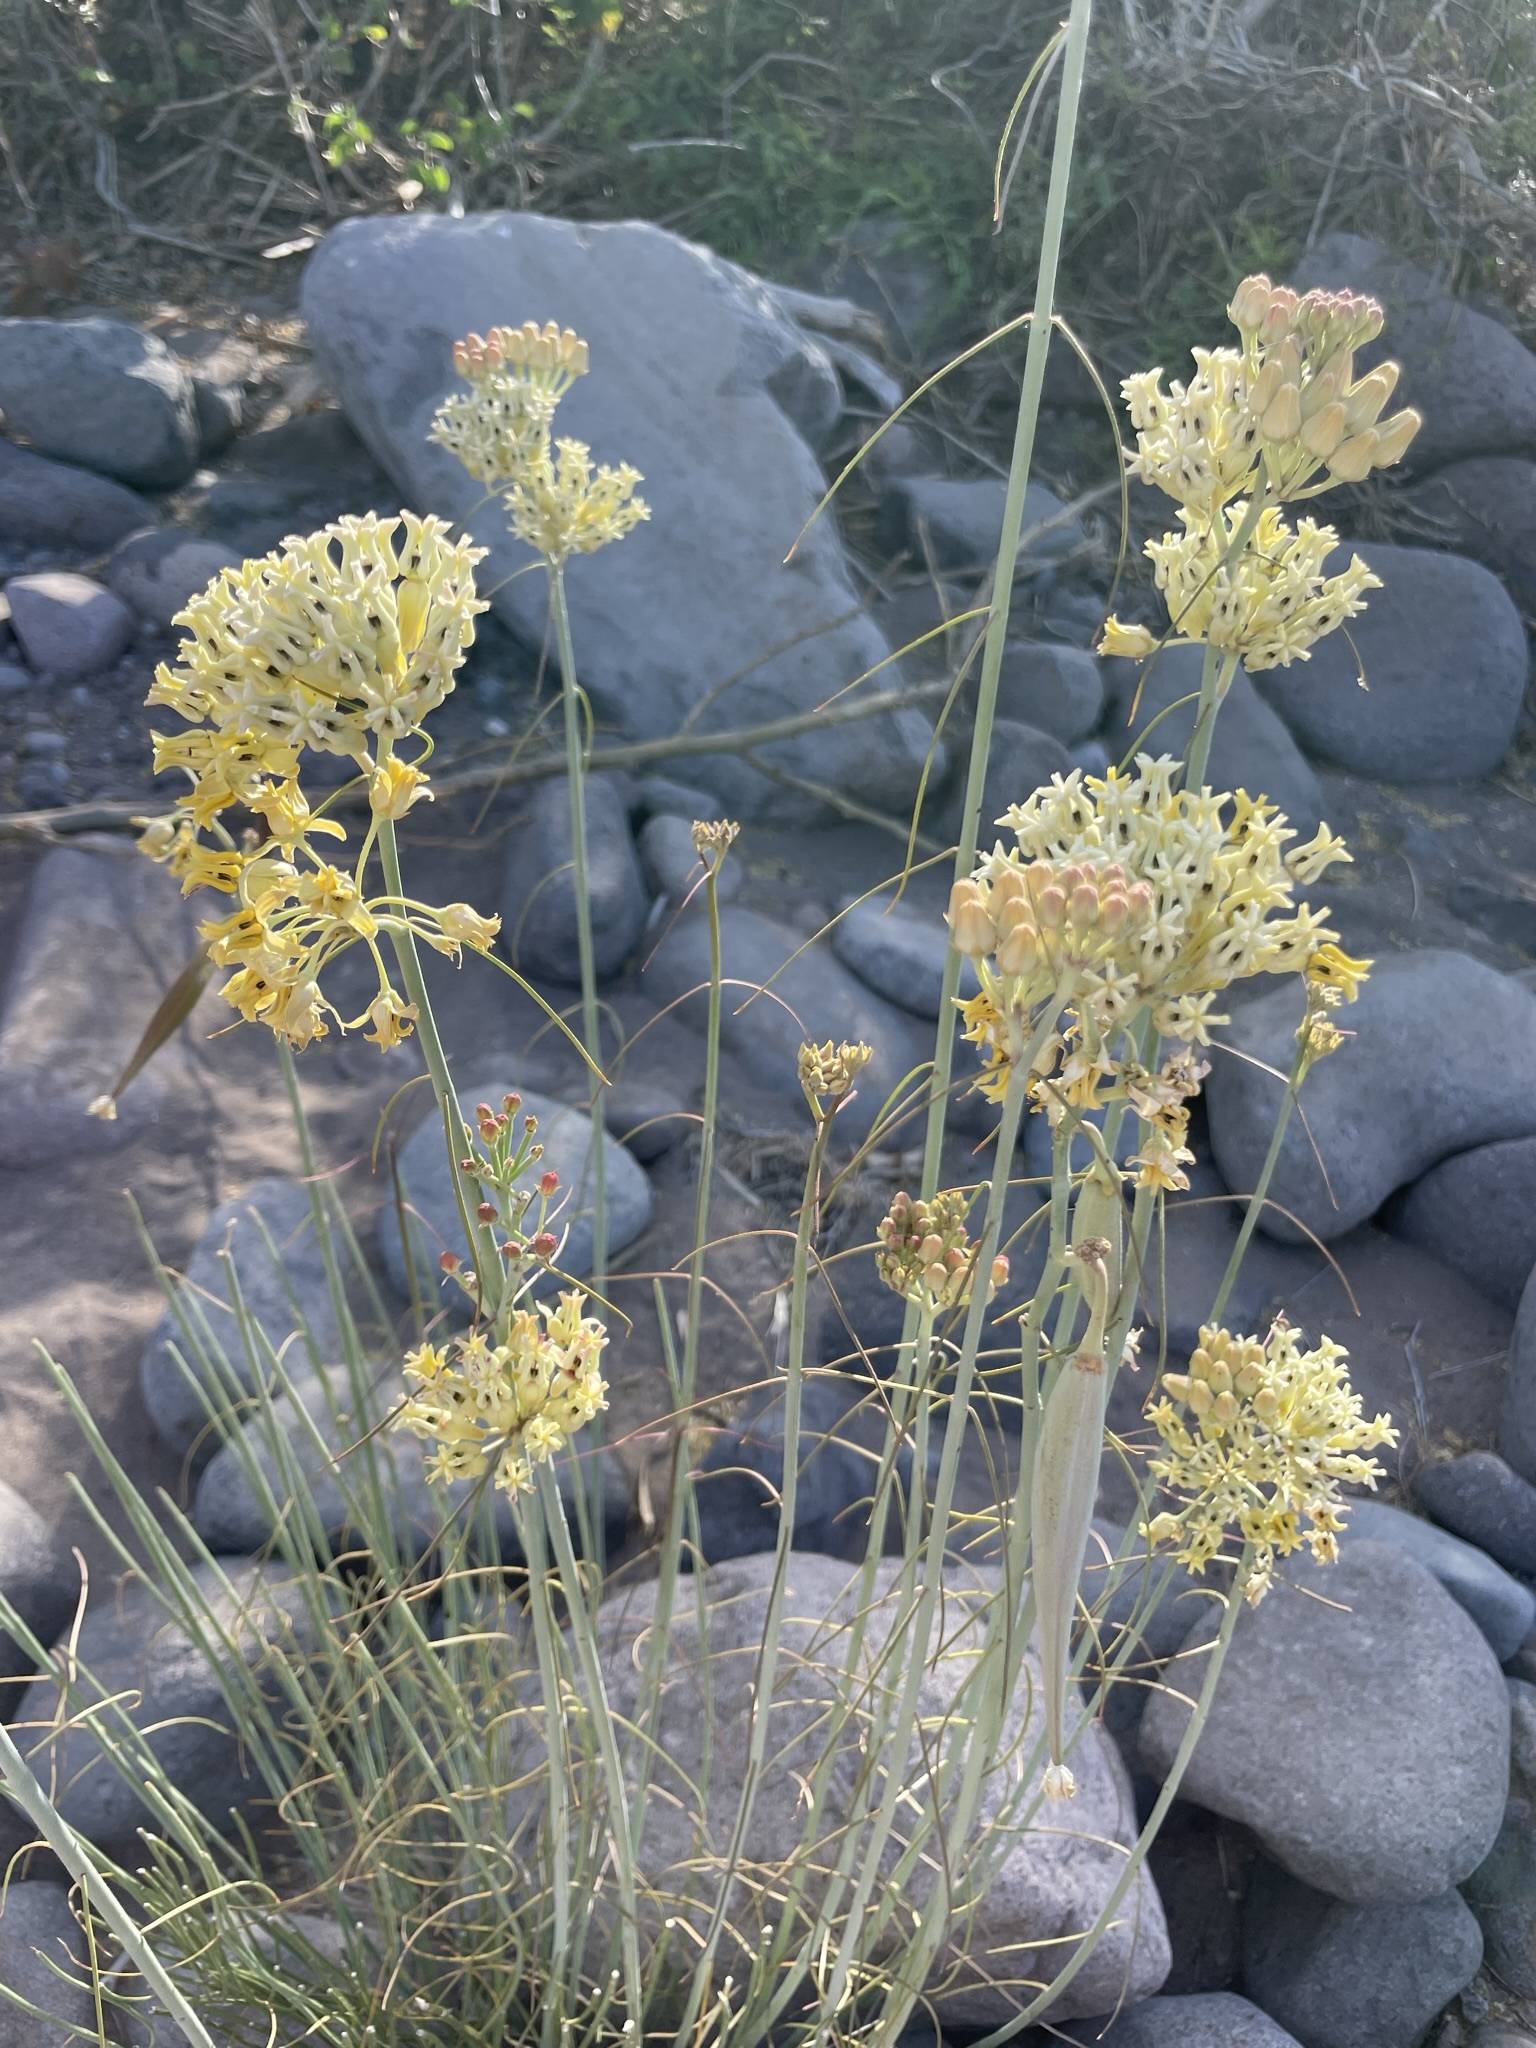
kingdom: Plantae
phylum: Tracheophyta
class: Magnoliopsida
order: Gentianales
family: Apocynaceae
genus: Asclepias
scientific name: Asclepias subulata
